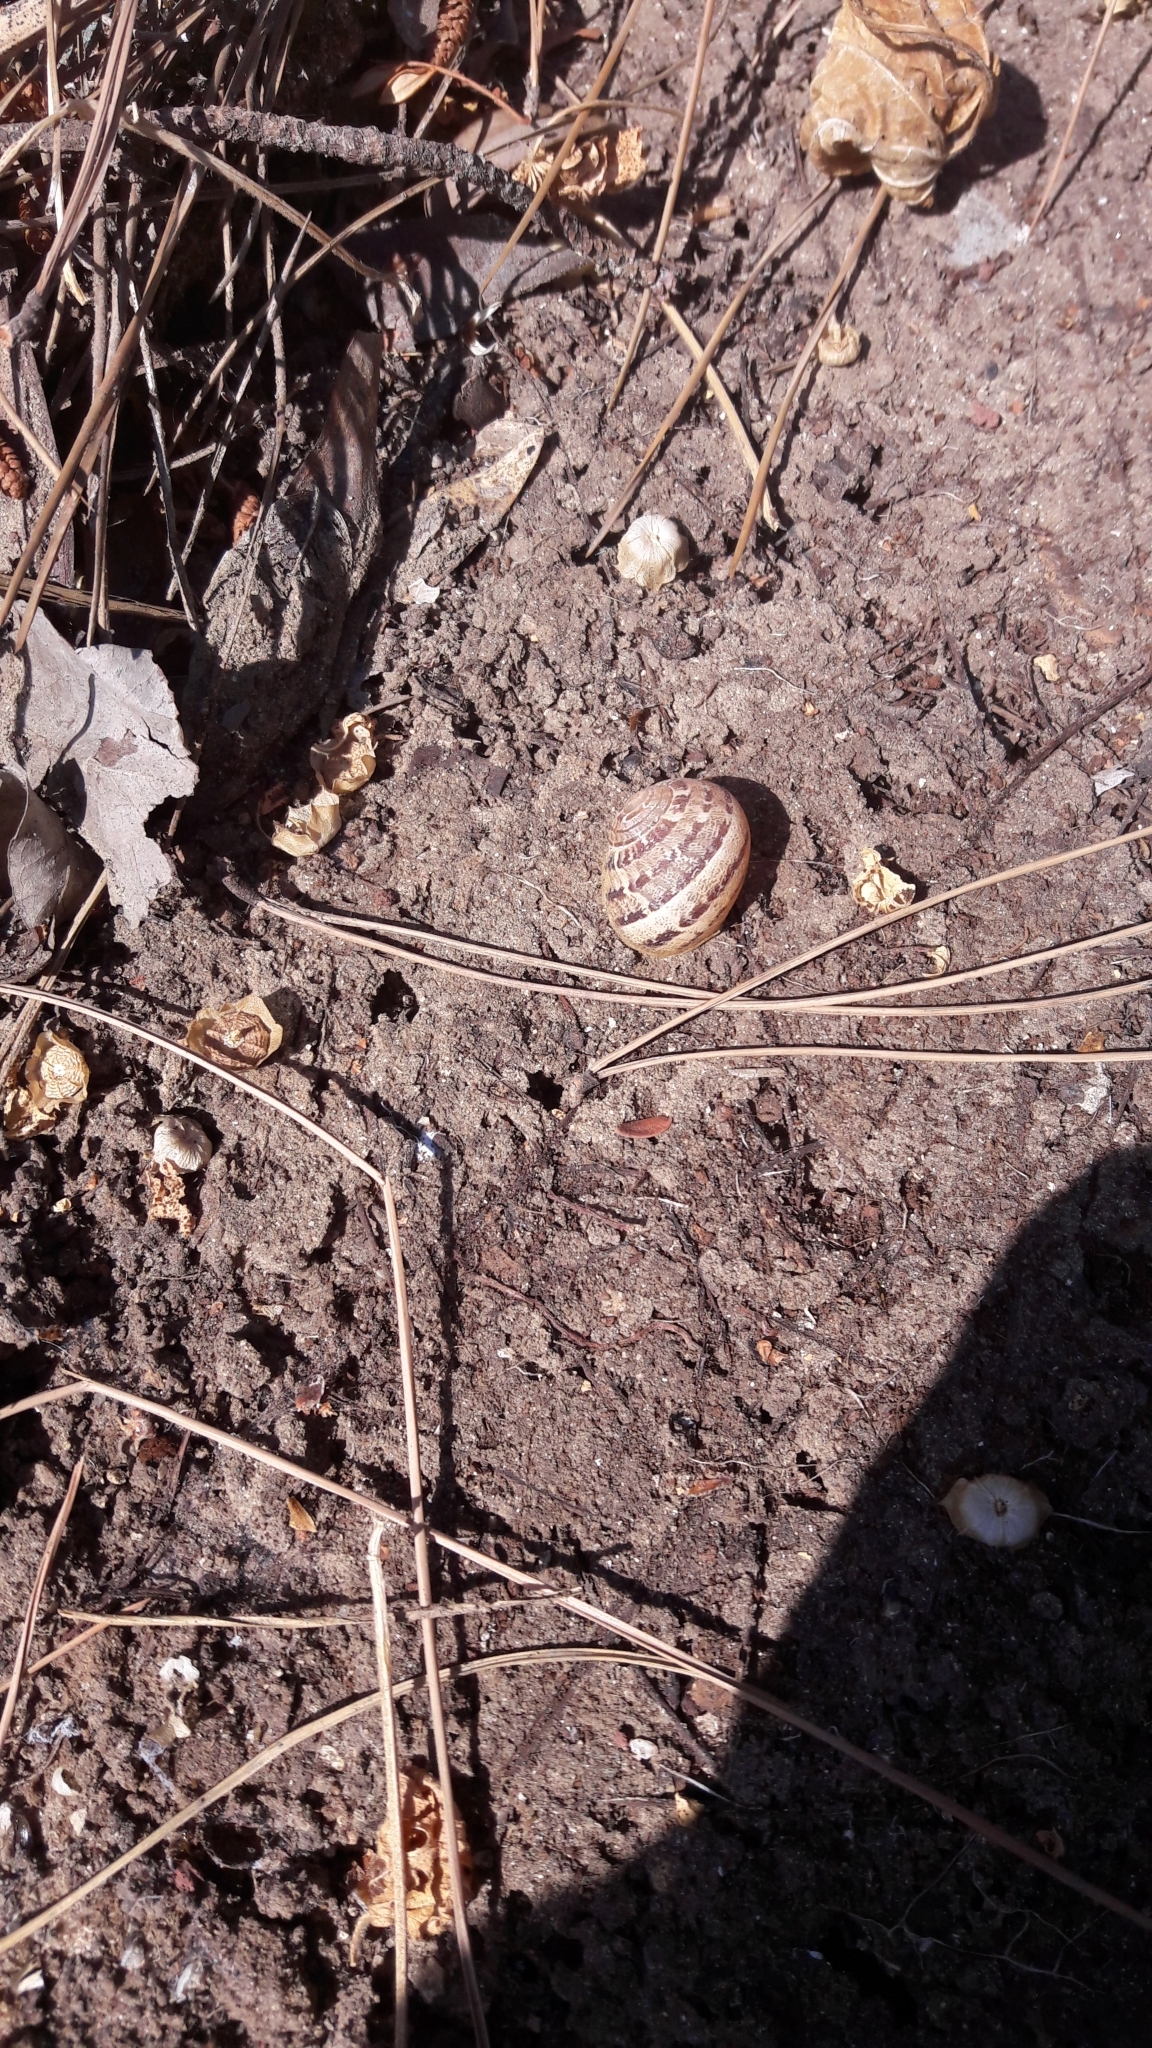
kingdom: Animalia
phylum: Mollusca
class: Gastropoda
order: Stylommatophora
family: Helicidae
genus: Cornu
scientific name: Cornu aspersum
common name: Brown garden snail
